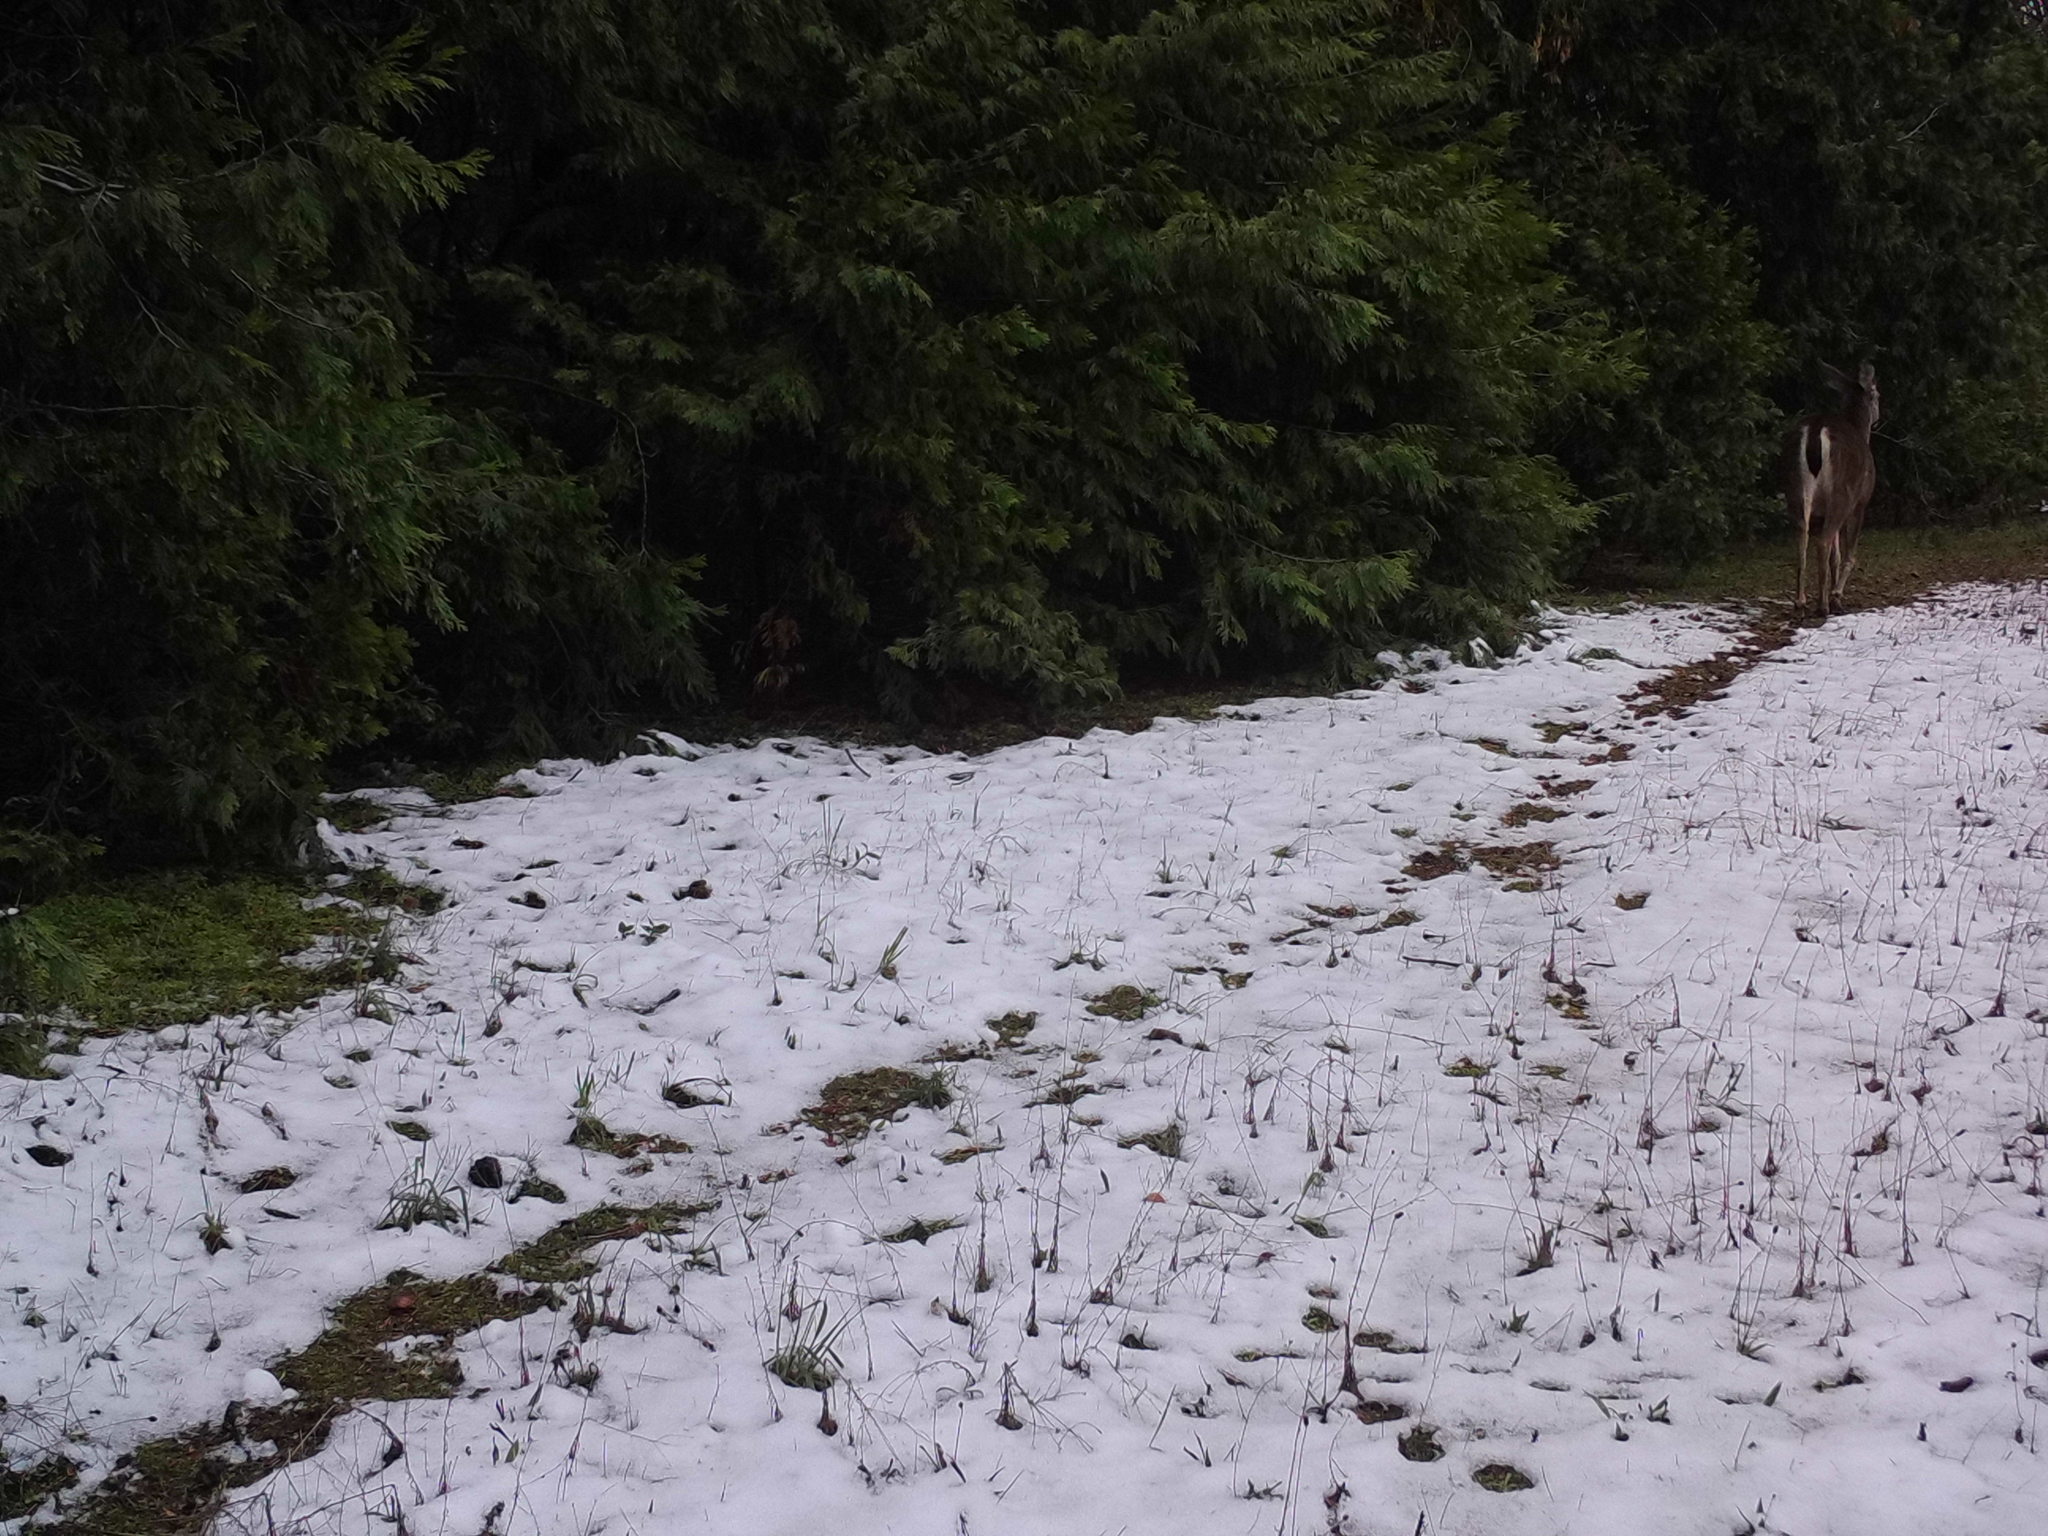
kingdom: Animalia
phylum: Chordata
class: Mammalia
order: Artiodactyla
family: Cervidae
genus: Odocoileus
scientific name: Odocoileus hemionus
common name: Mule deer
